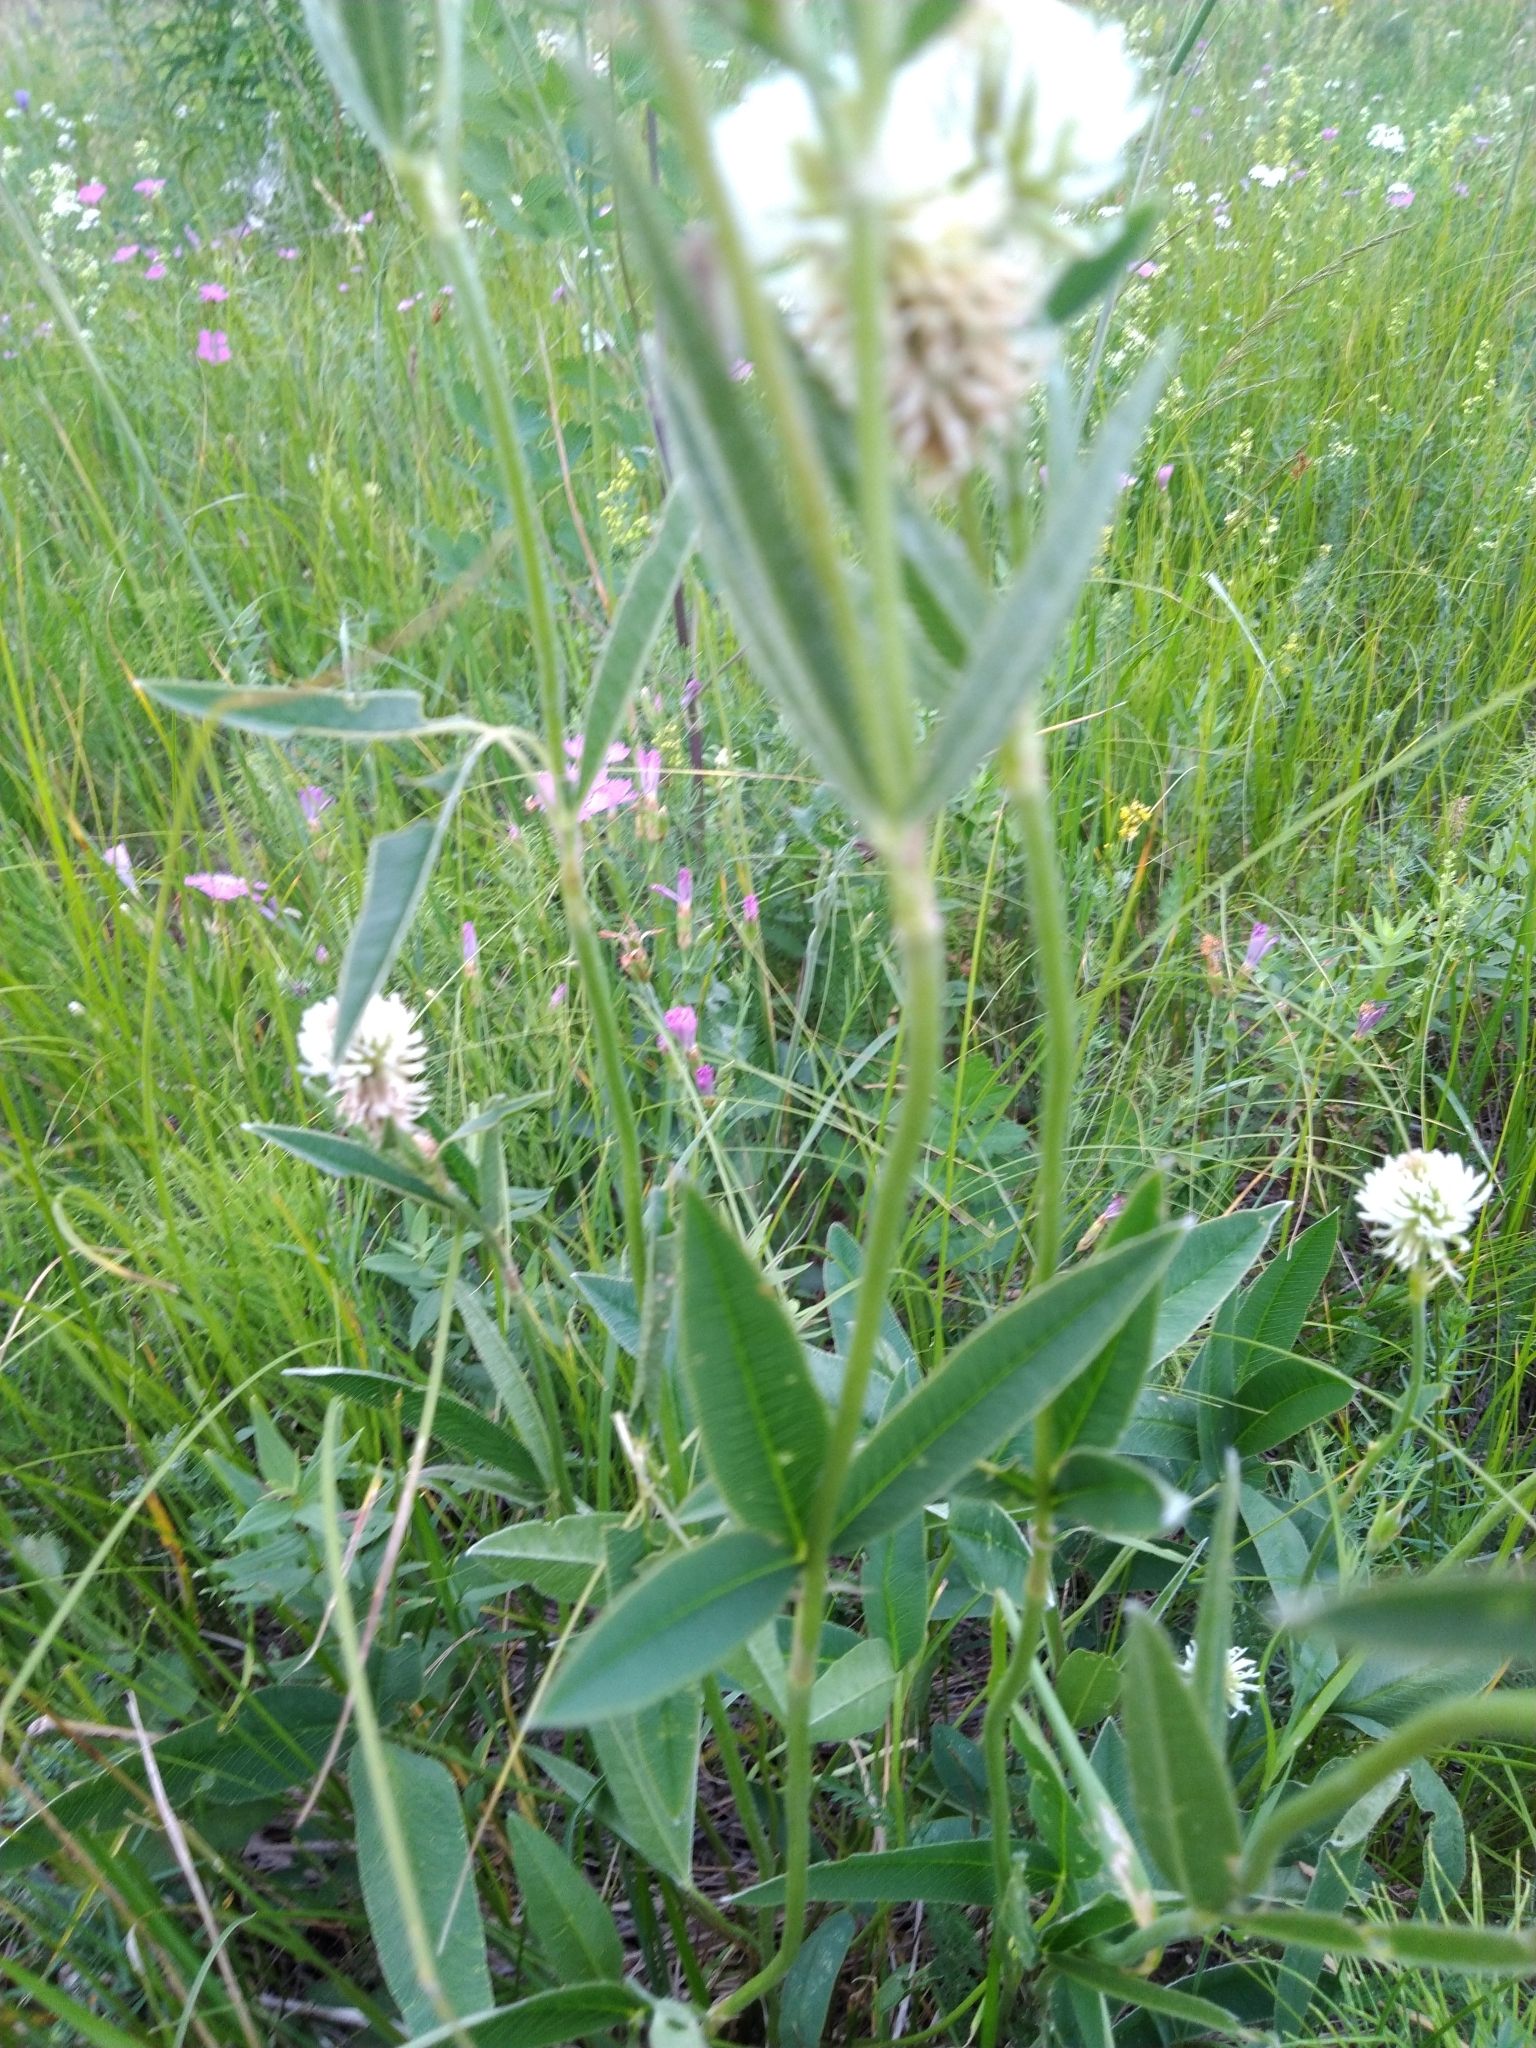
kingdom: Plantae
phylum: Tracheophyta
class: Magnoliopsida
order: Fabales
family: Fabaceae
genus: Trifolium
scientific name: Trifolium montanum
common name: Mountain clover
